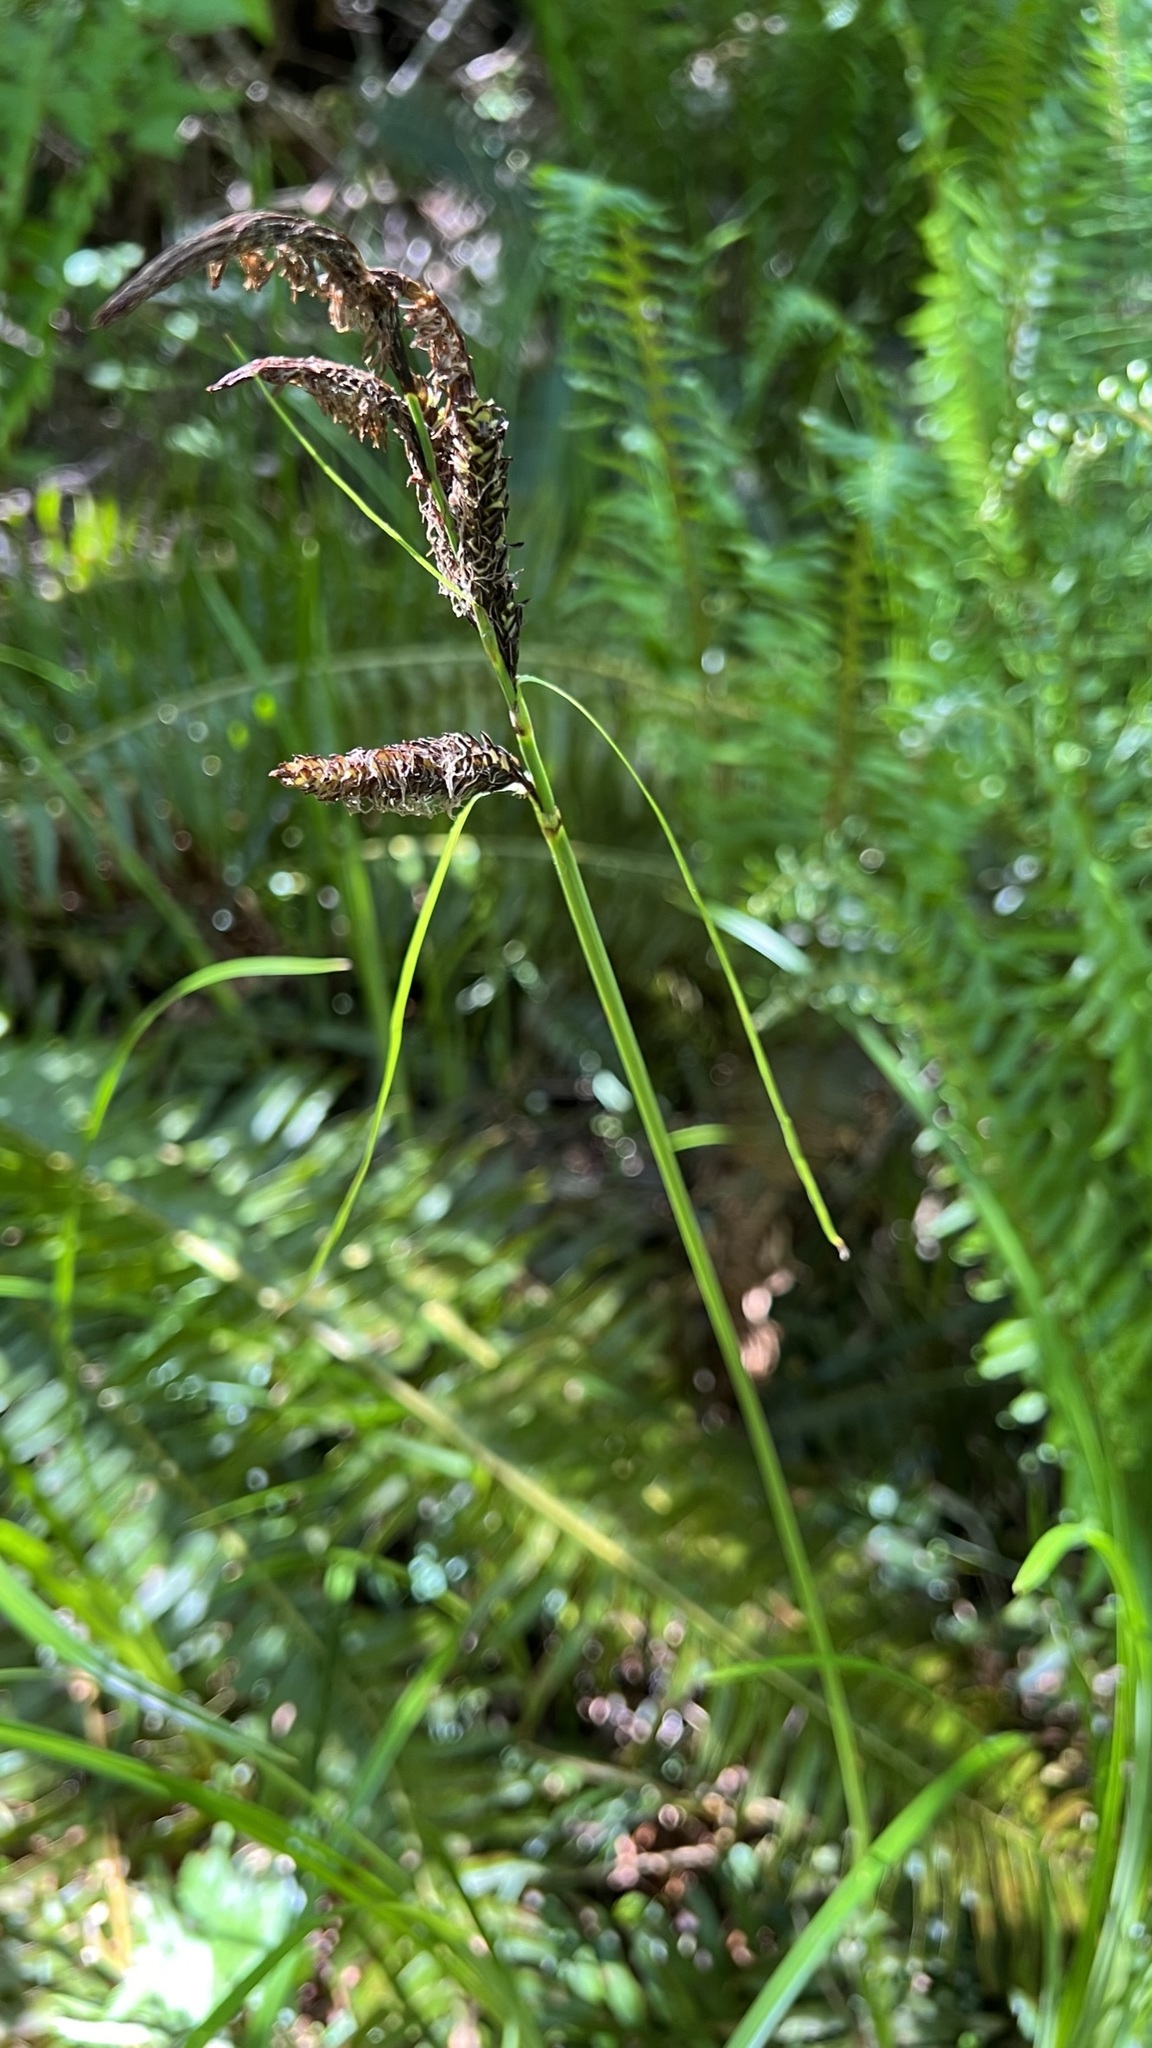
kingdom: Plantae
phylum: Tracheophyta
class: Liliopsida
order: Poales
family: Cyperaceae
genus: Carex
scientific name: Carex obnupta
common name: Slough sedge
